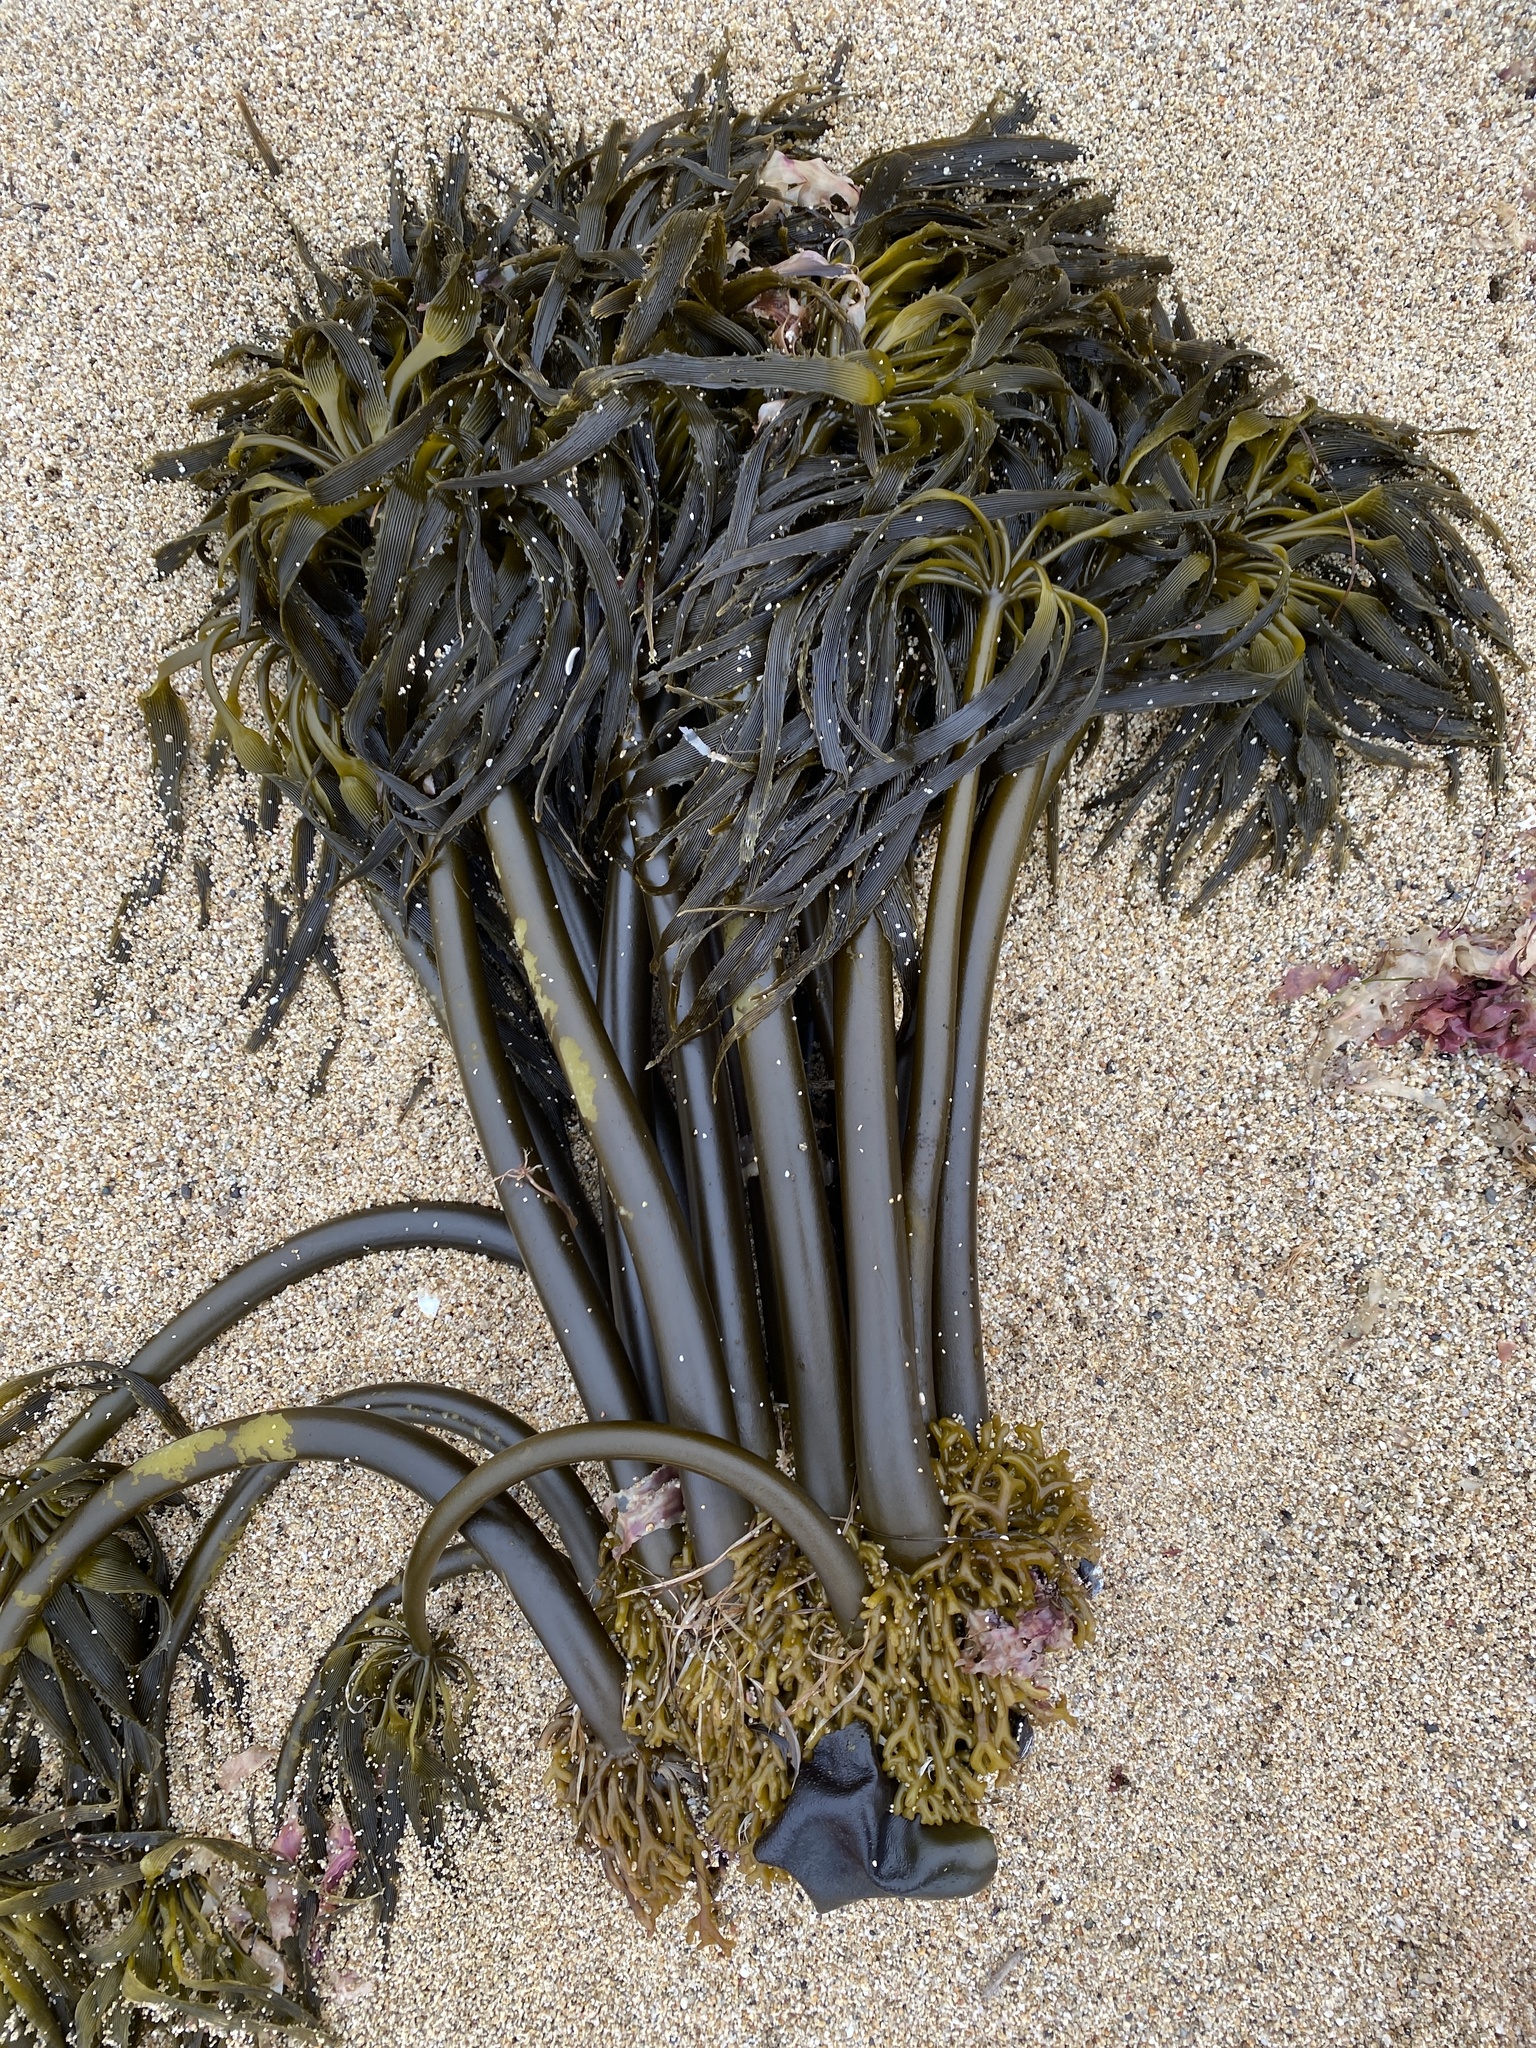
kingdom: Chromista
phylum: Ochrophyta
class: Phaeophyceae
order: Laminariales
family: Laminariaceae
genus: Postelsia
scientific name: Postelsia palmiformis
